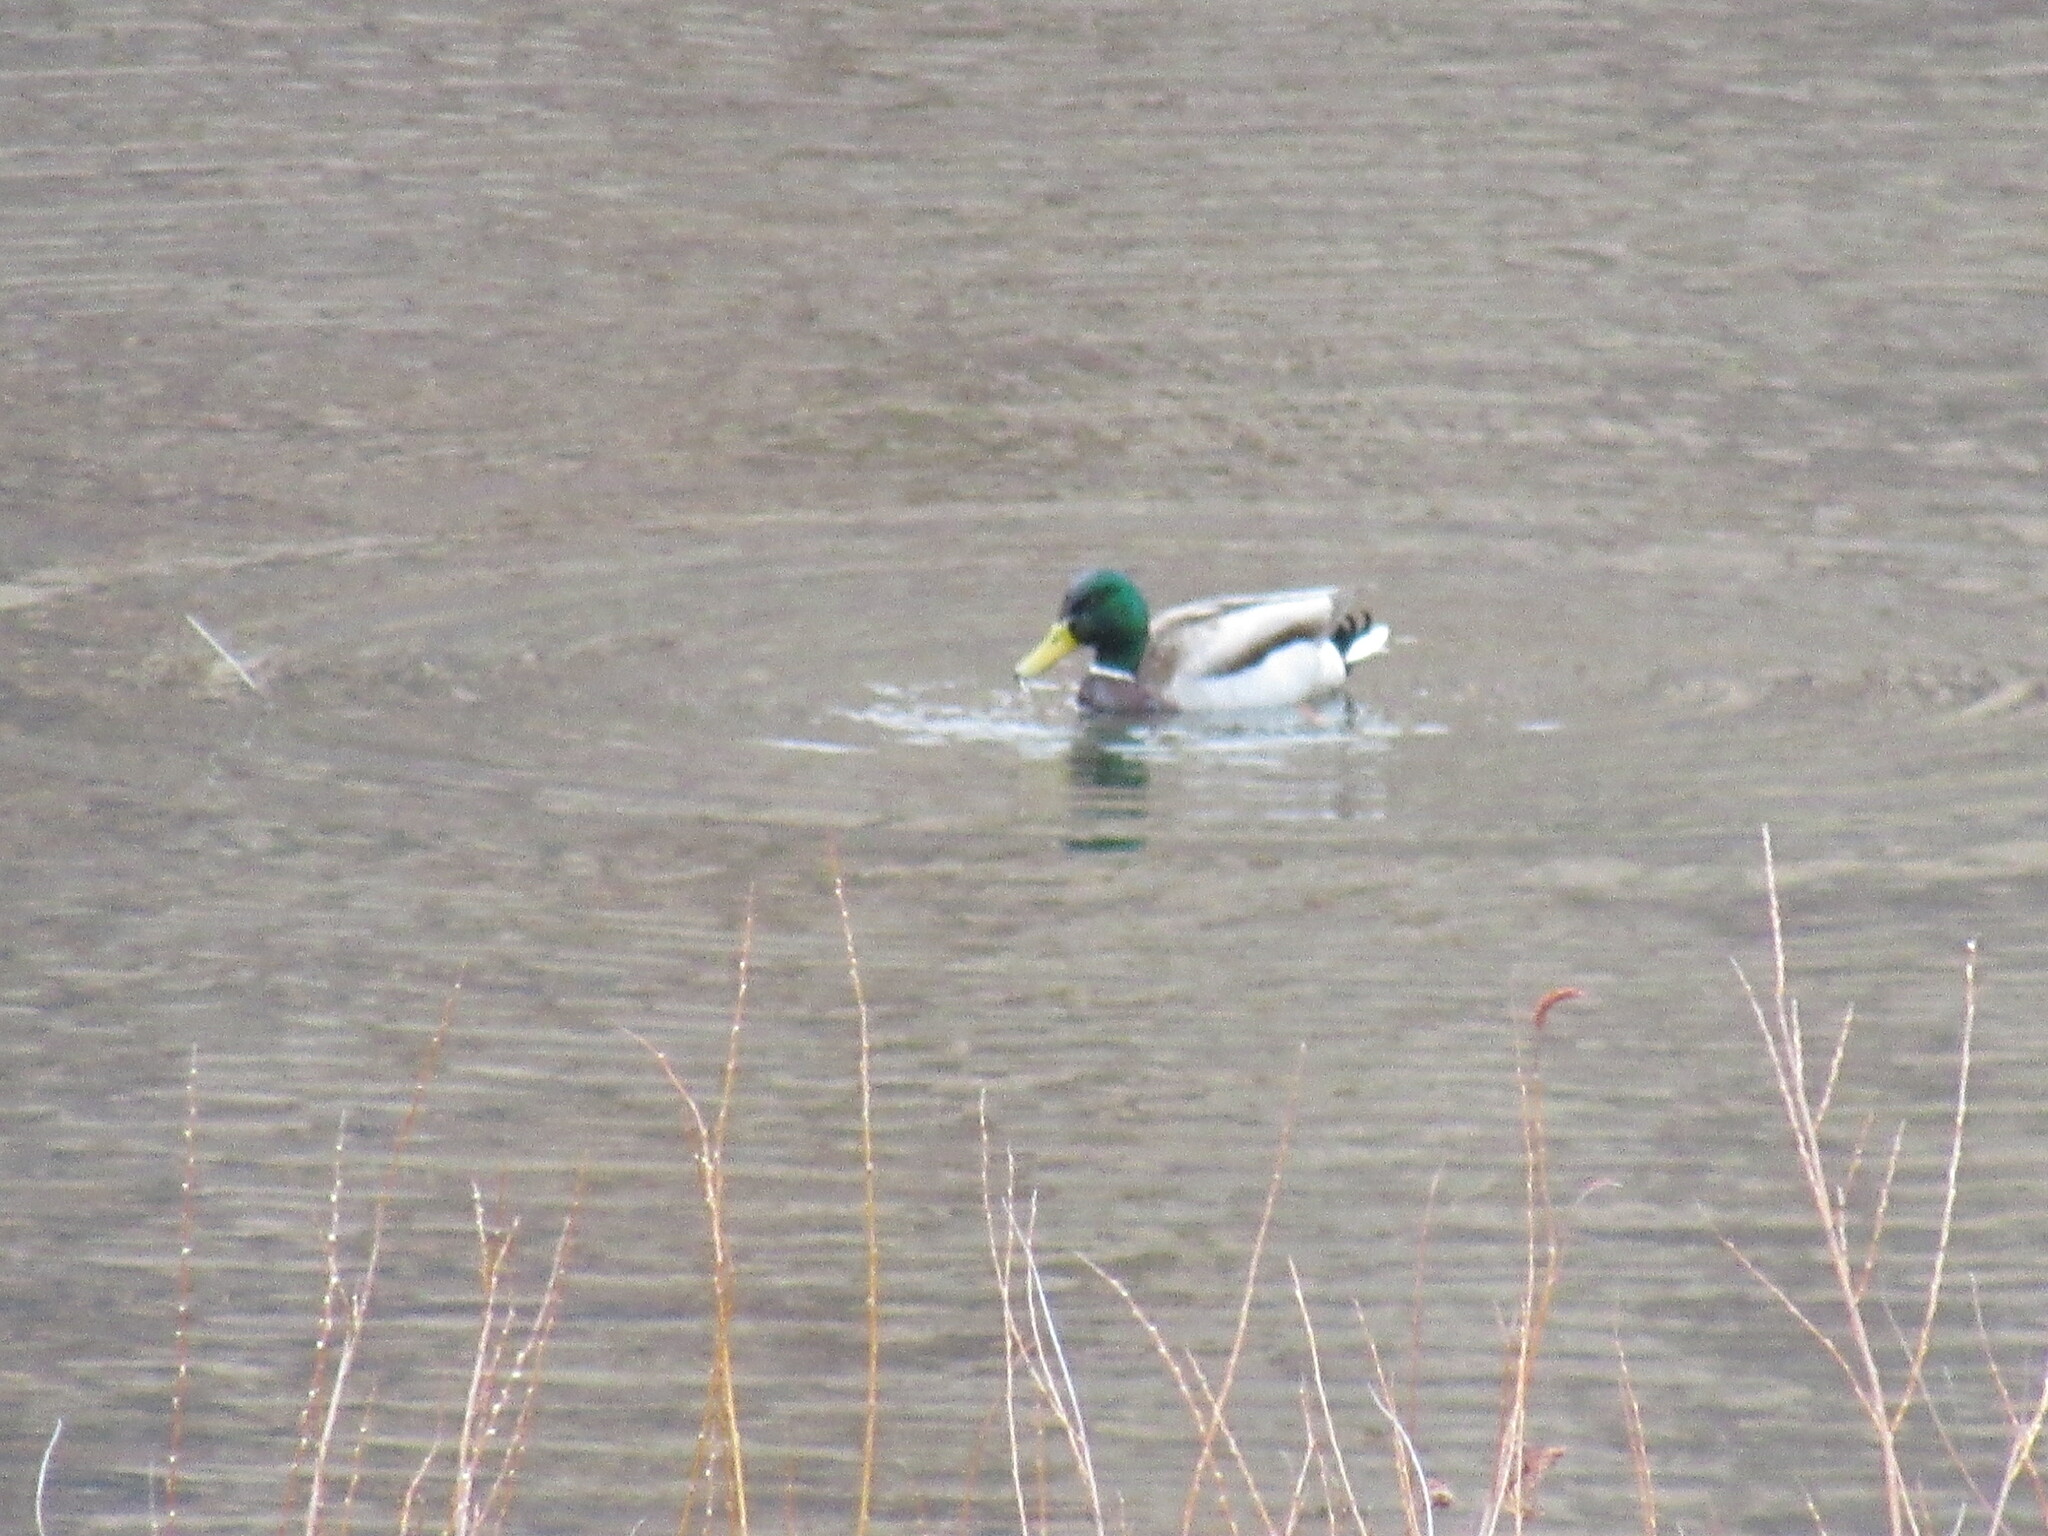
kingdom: Animalia
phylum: Chordata
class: Aves
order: Anseriformes
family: Anatidae
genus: Anas
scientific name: Anas platyrhynchos
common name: Mallard
